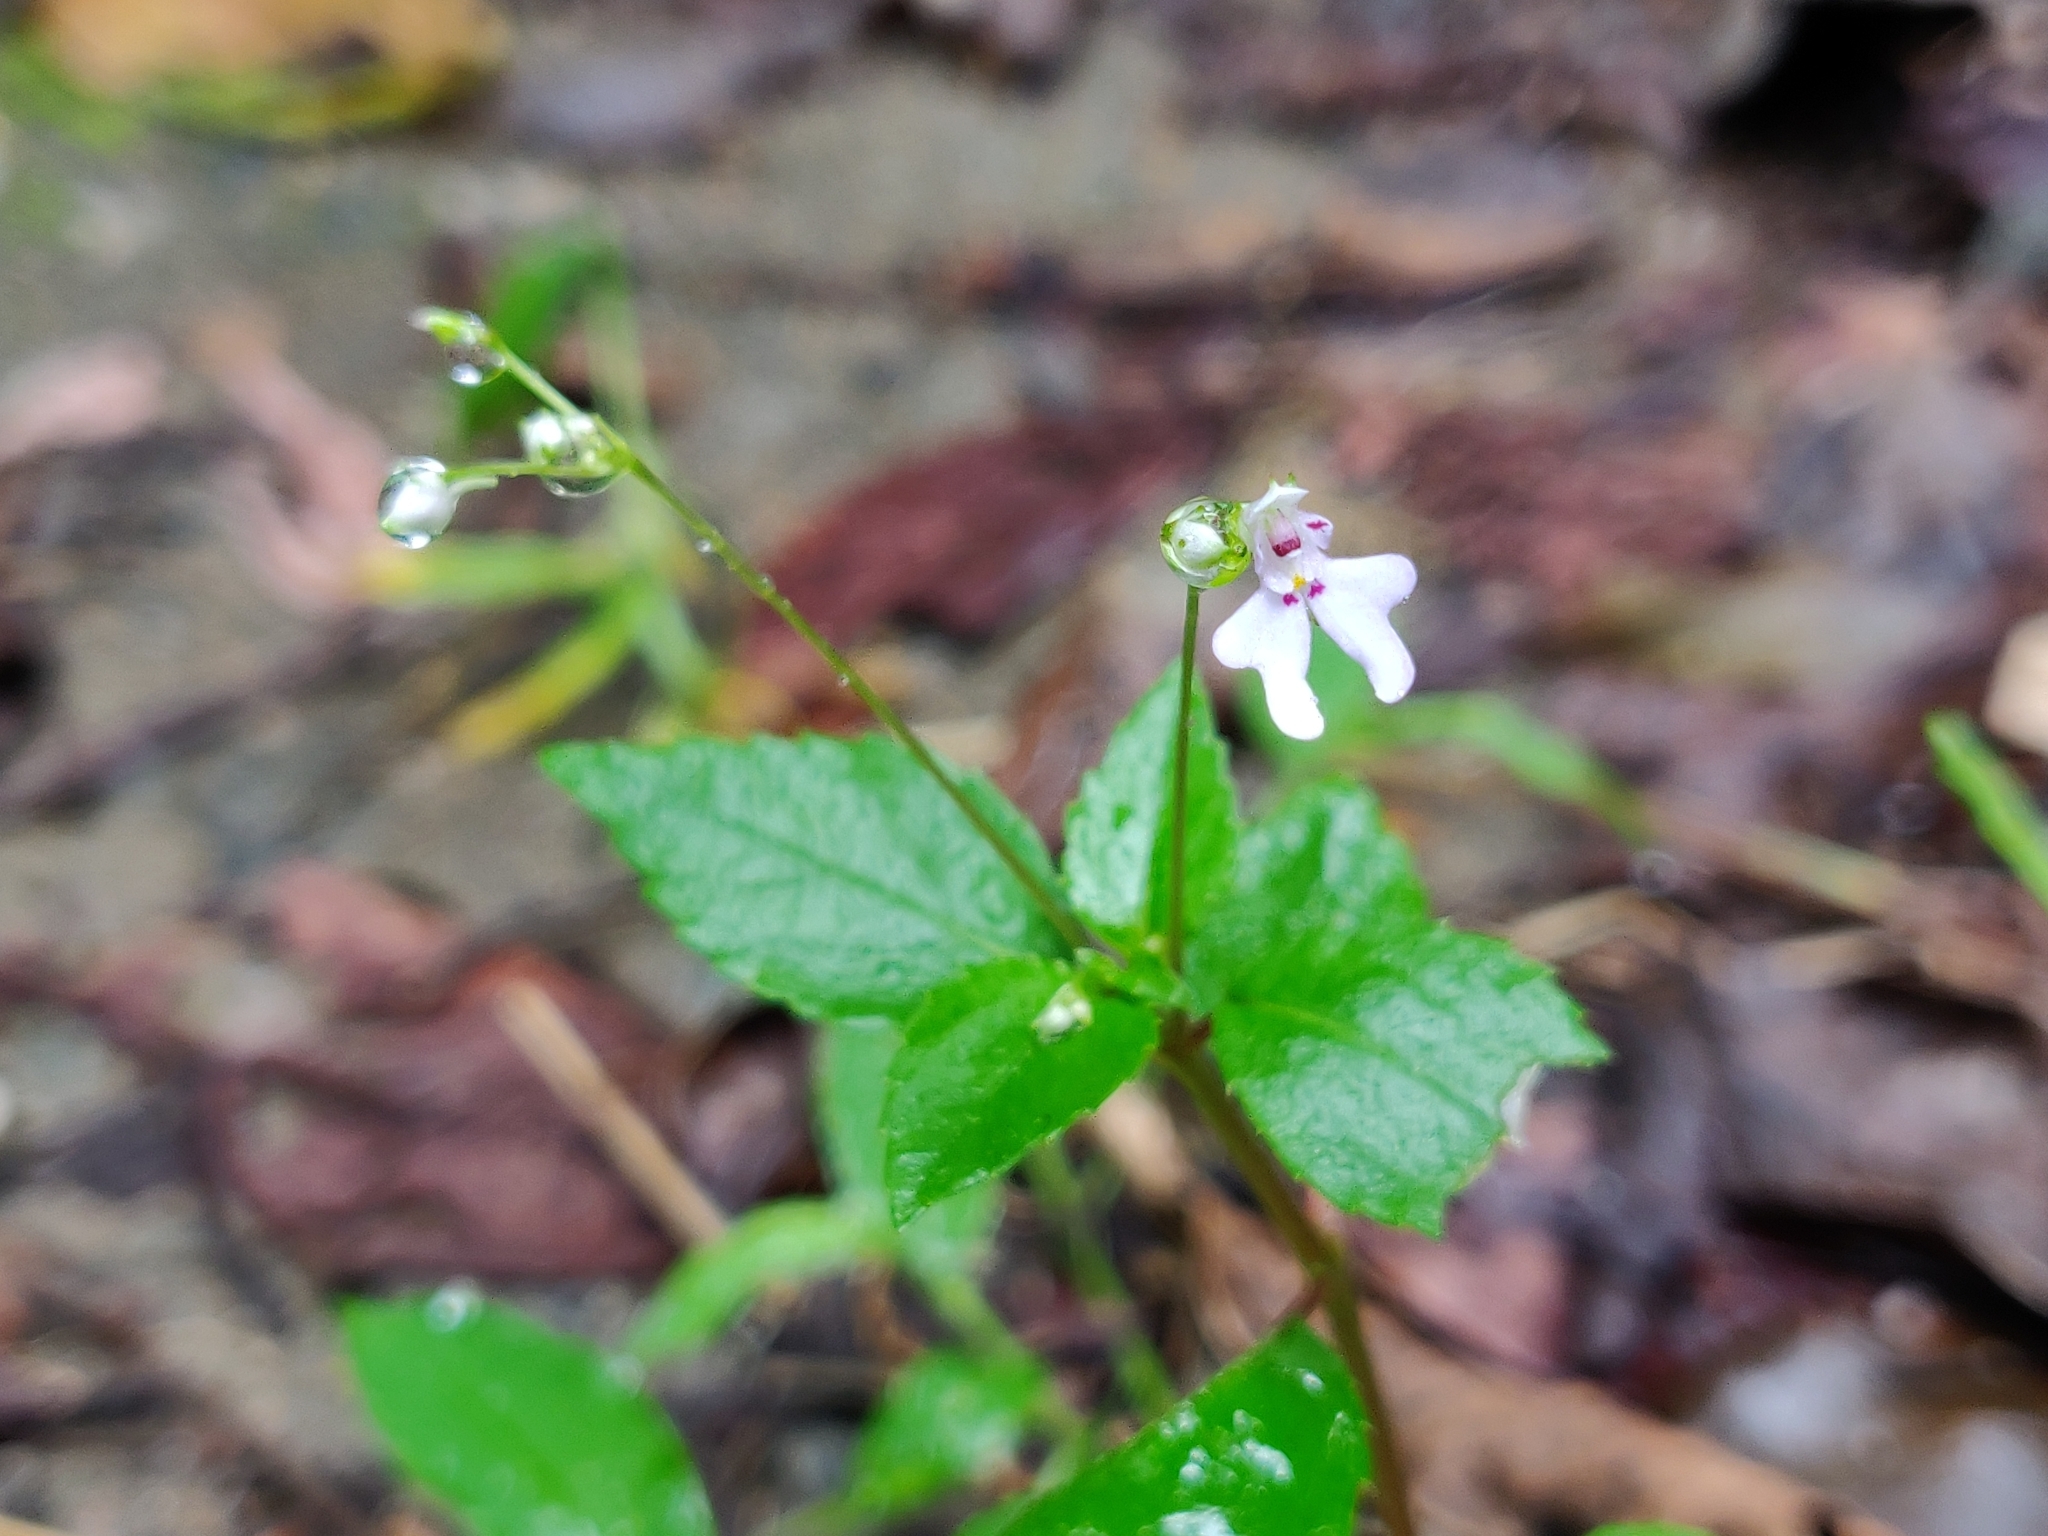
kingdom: Plantae
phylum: Tracheophyta
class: Magnoliopsida
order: Ericales
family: Balsaminaceae
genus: Impatiens
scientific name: Impatiens goughii
